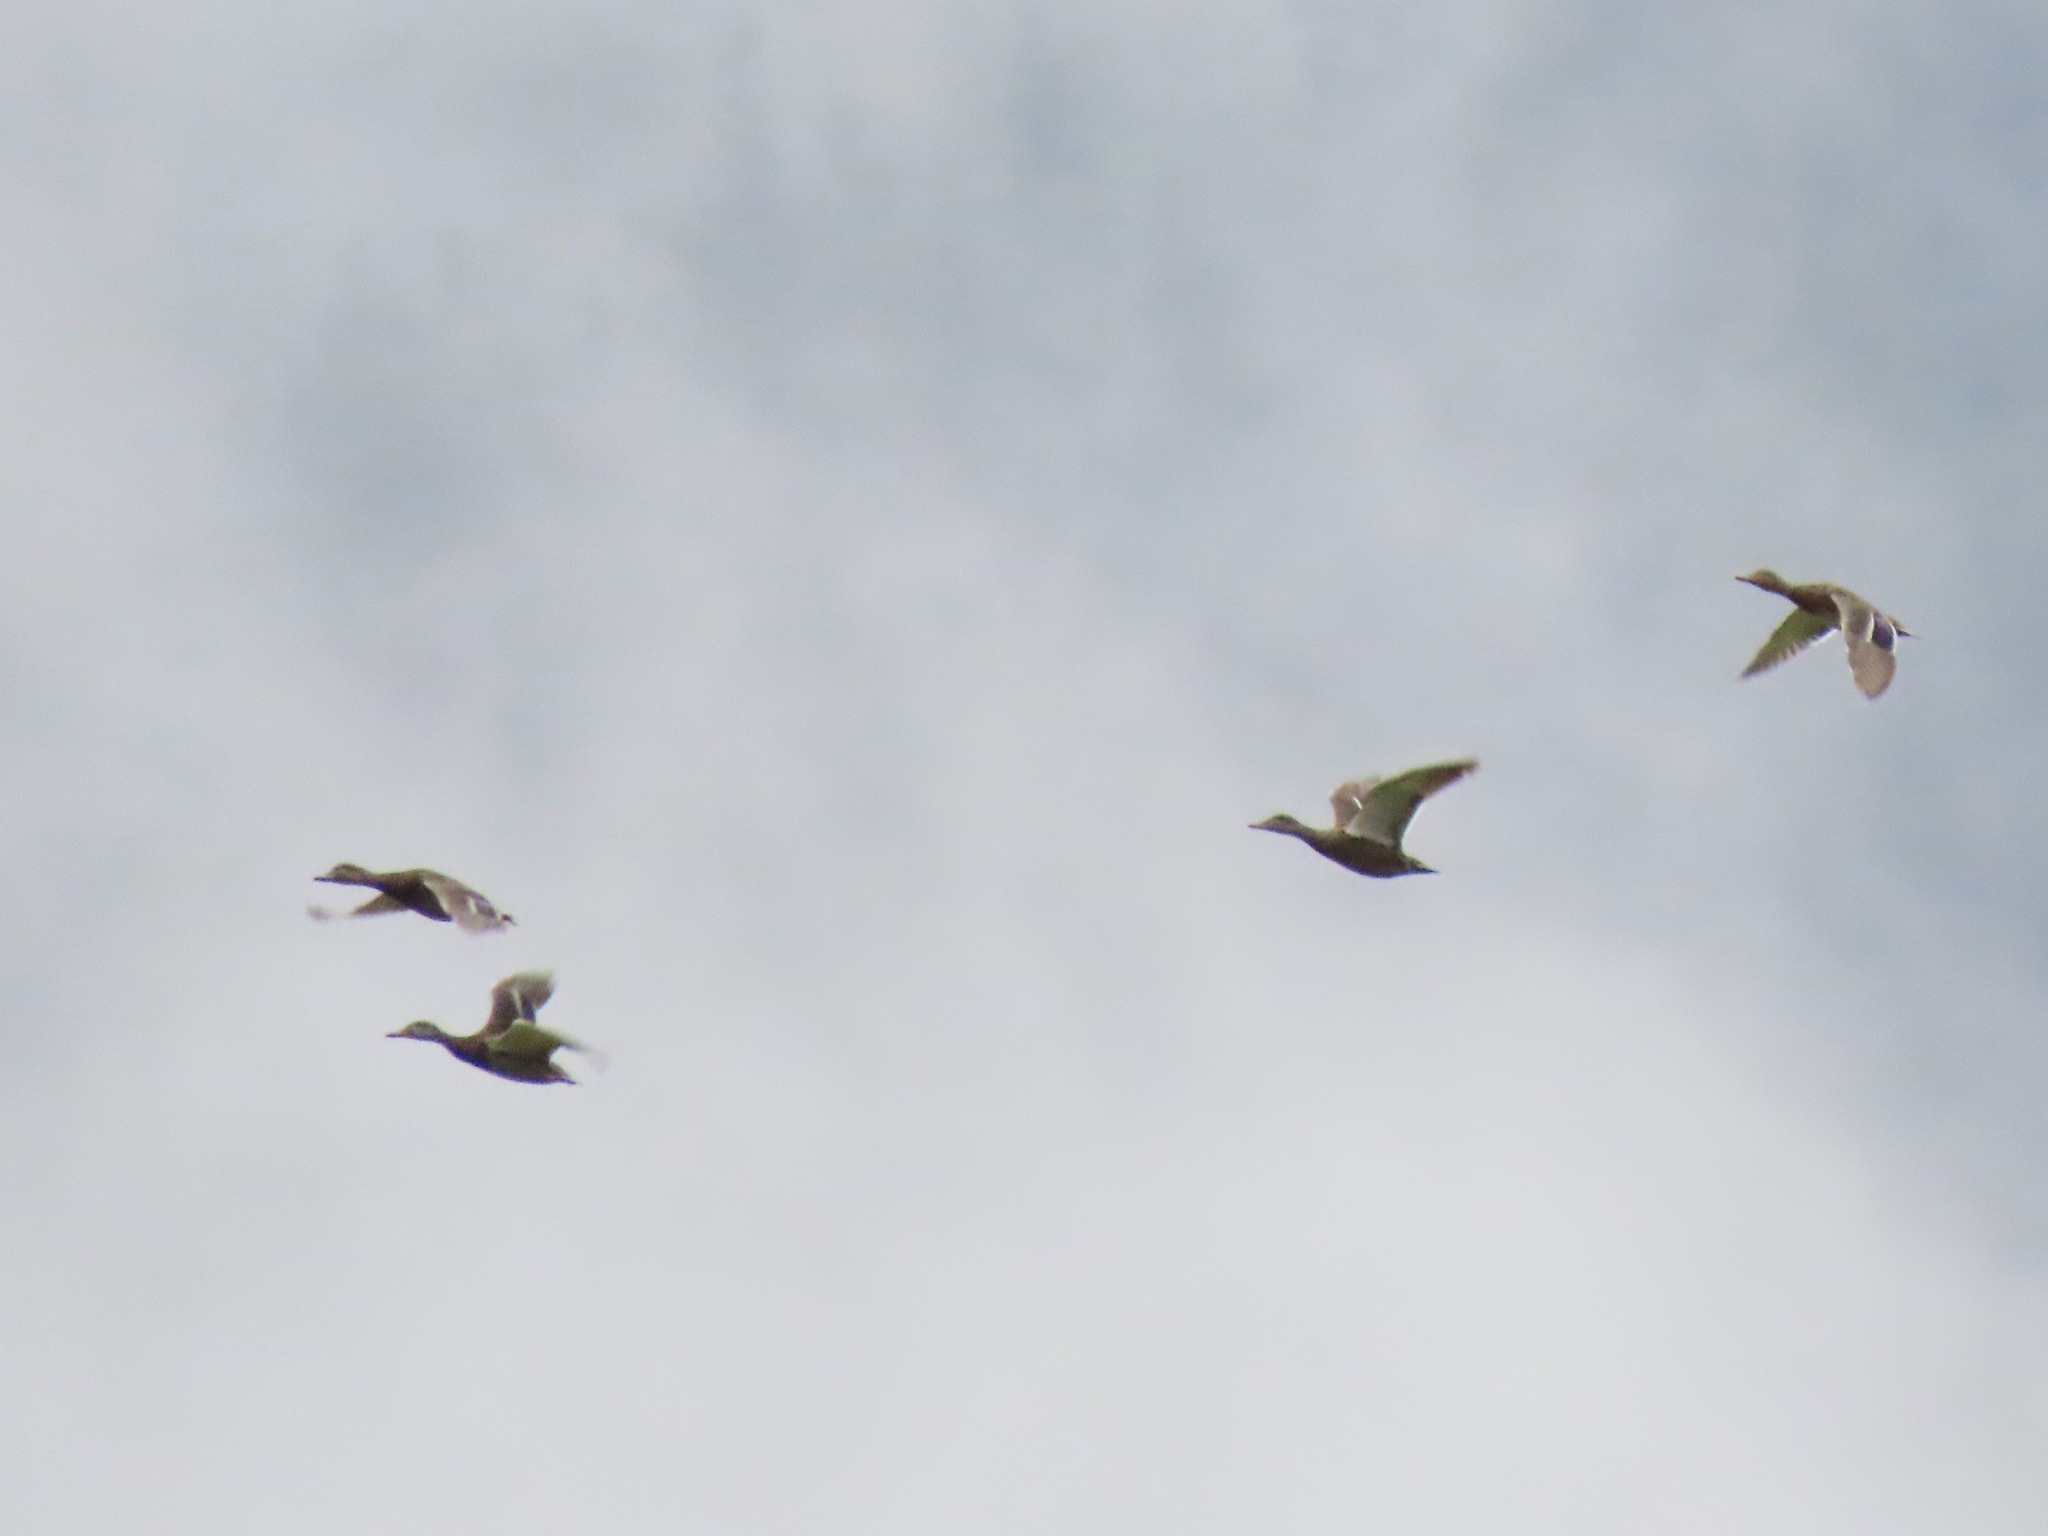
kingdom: Animalia
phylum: Chordata
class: Aves
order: Anseriformes
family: Anatidae
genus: Anas
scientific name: Anas platyrhynchos
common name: Mallard
